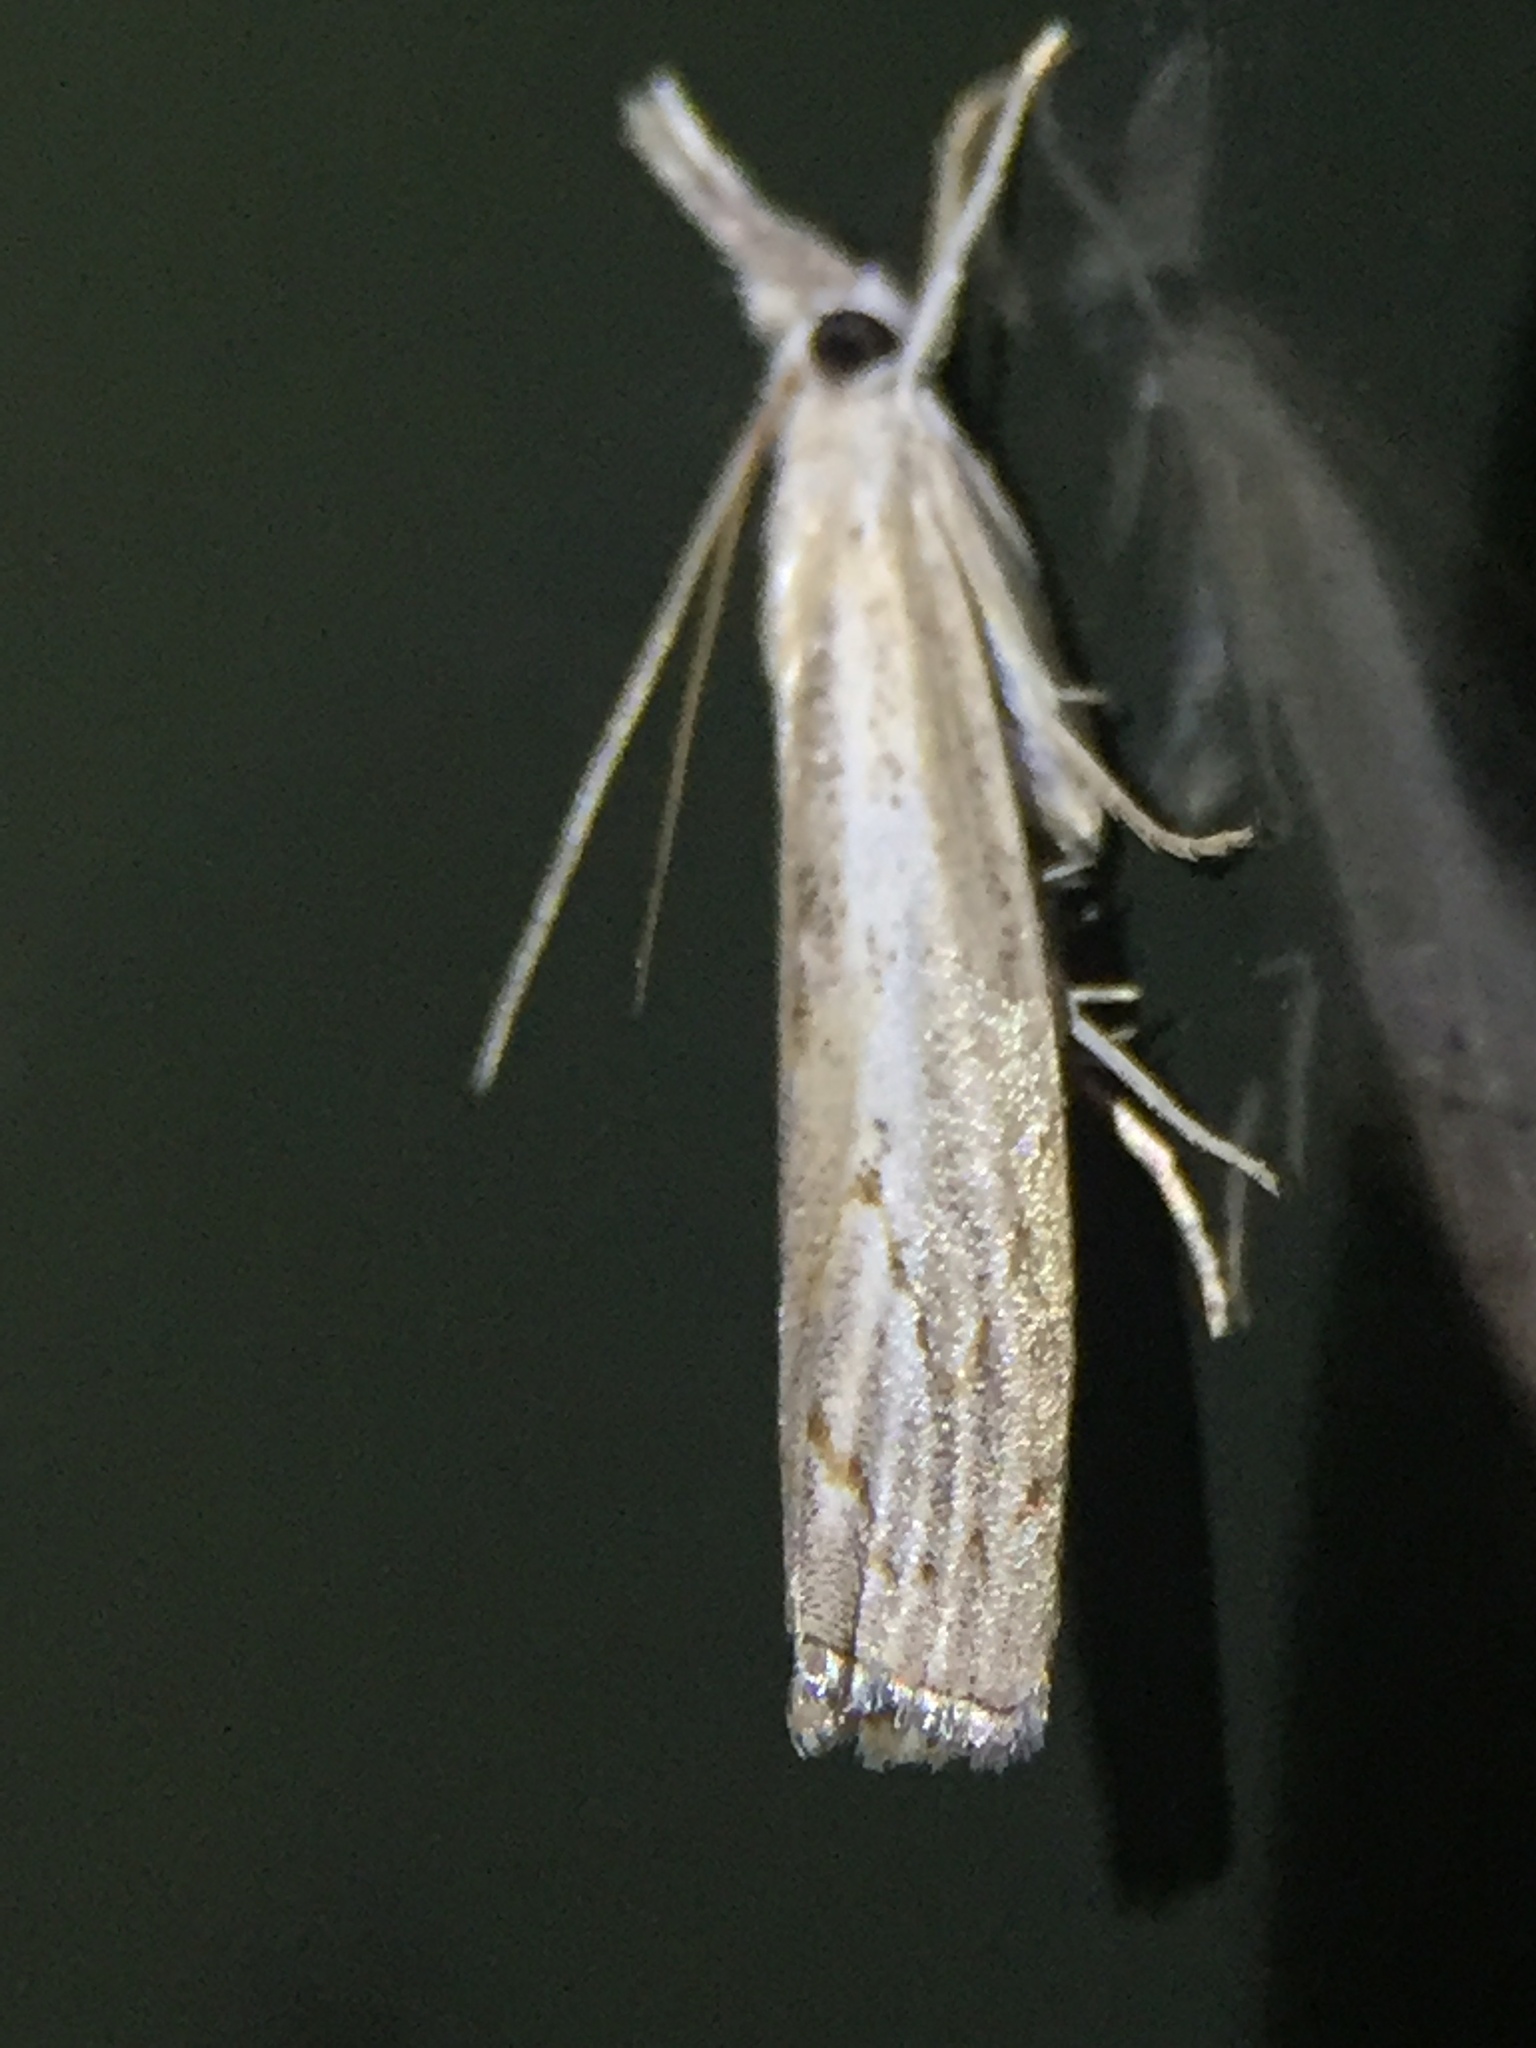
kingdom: Animalia
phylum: Arthropoda
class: Insecta
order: Lepidoptera
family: Crambidae
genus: Culladia
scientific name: Culladia cuneiferellus
